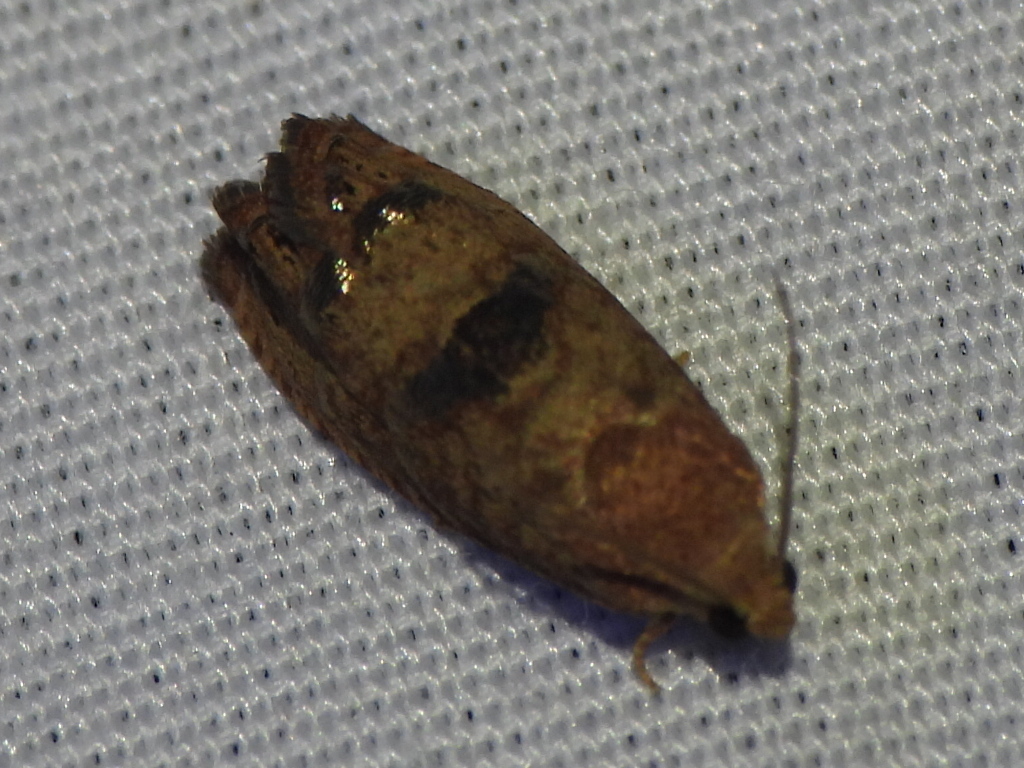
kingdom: Animalia
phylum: Arthropoda
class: Insecta
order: Lepidoptera
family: Tortricidae
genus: Cydia
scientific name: Cydia latiferreana
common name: Filbertworm moth
